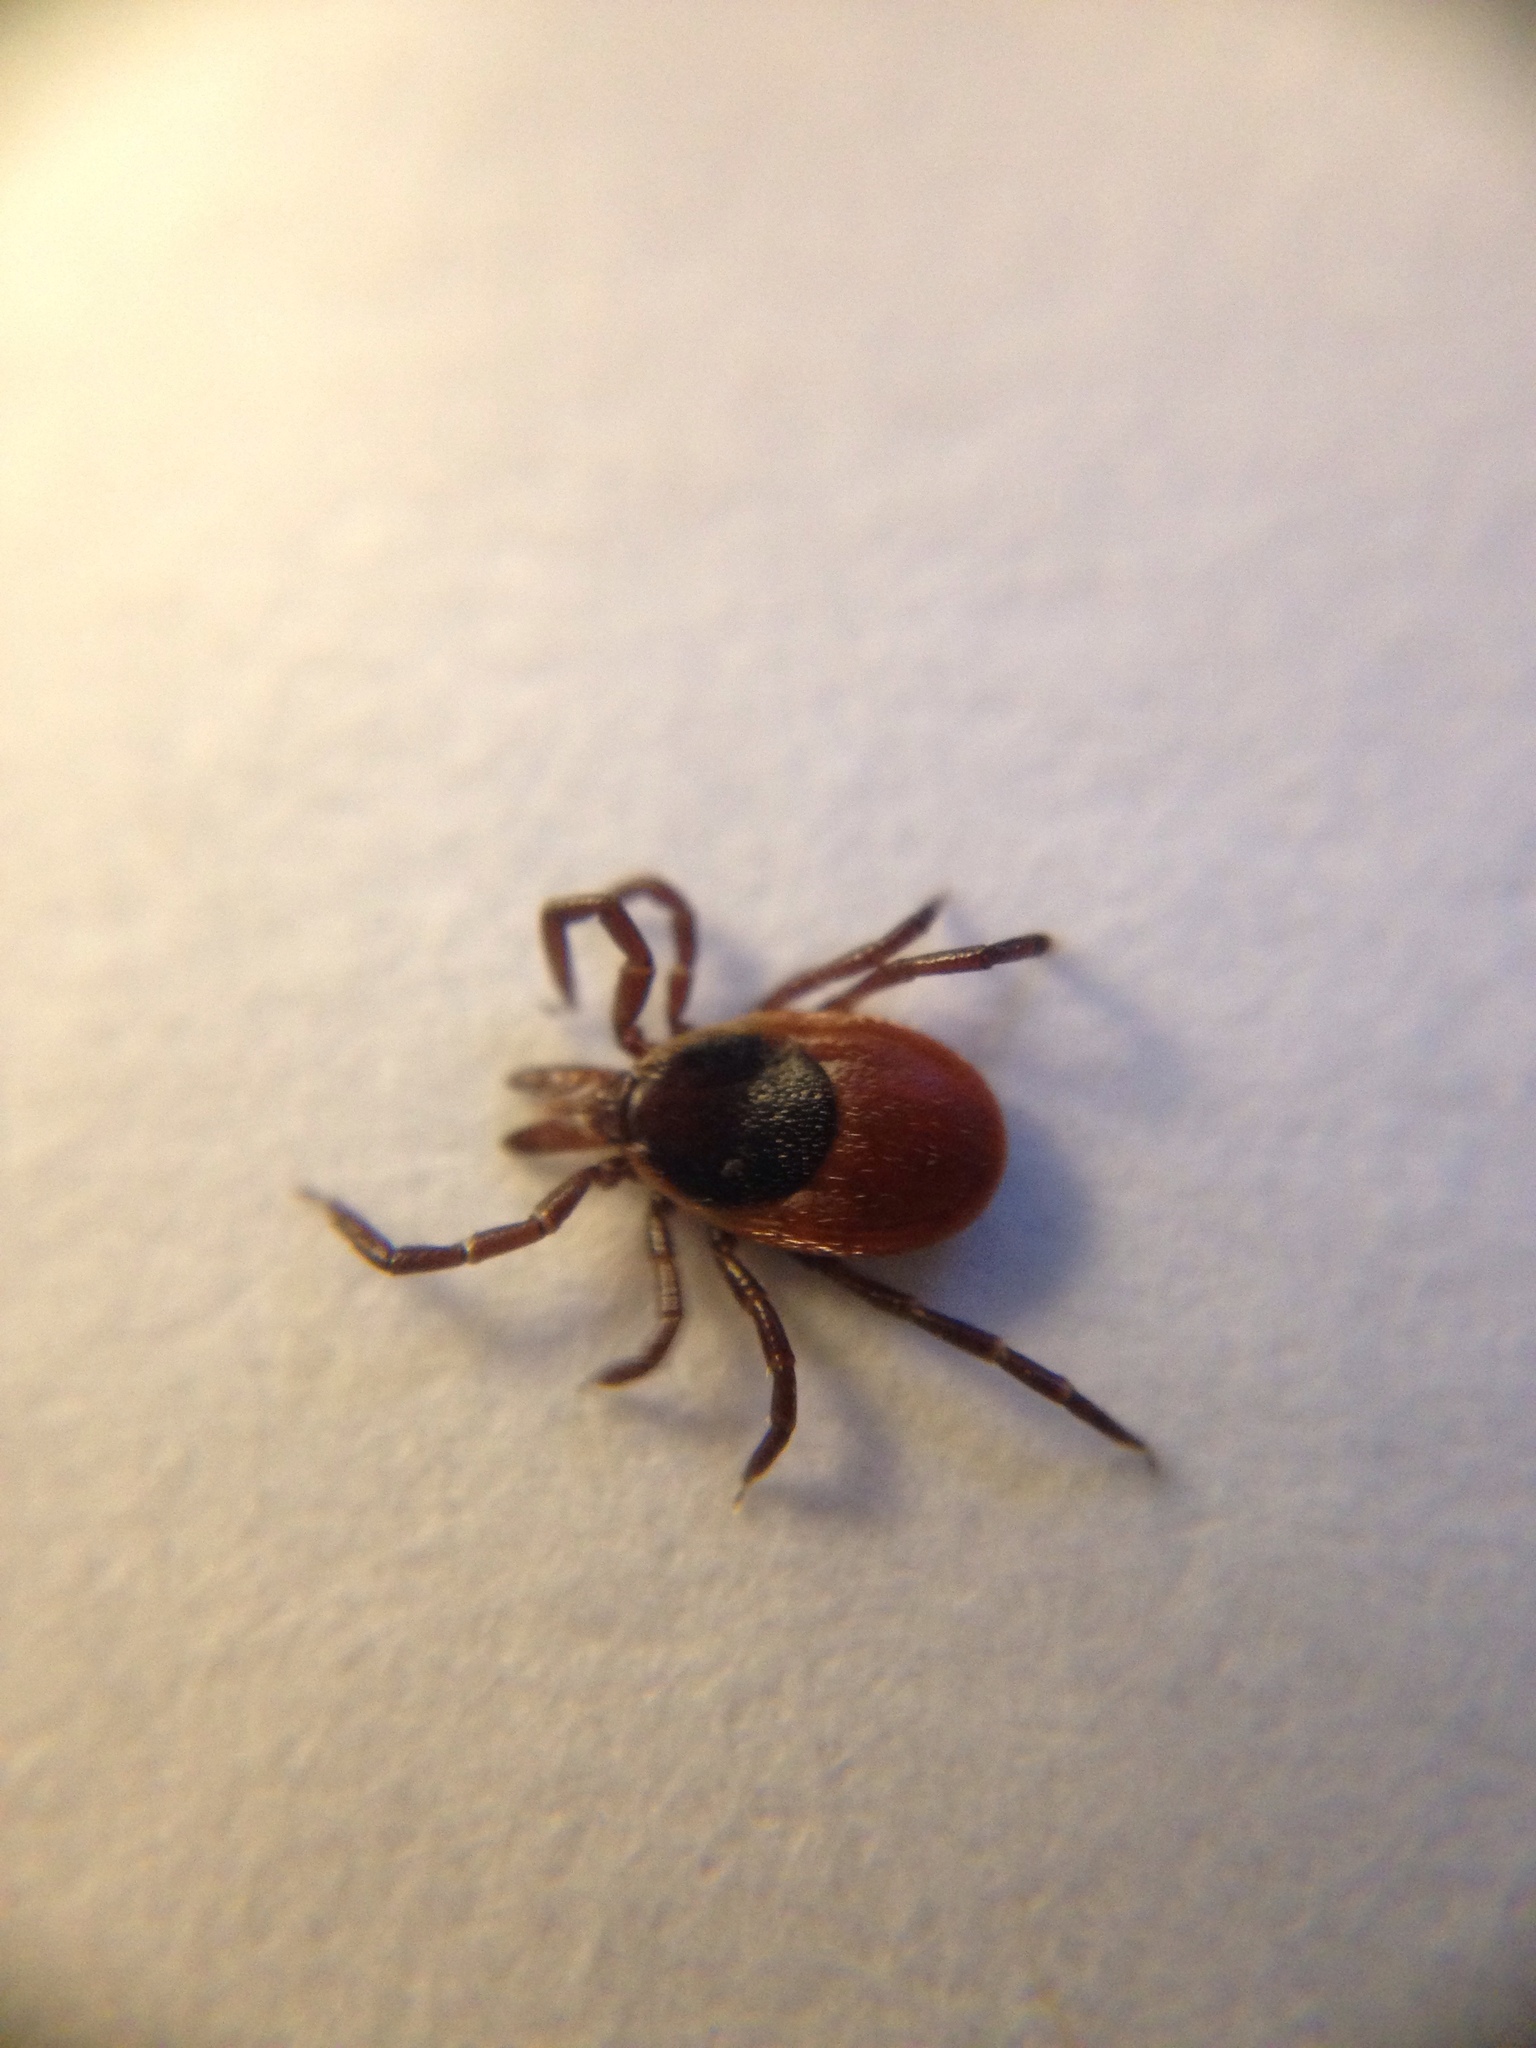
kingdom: Animalia
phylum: Arthropoda
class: Arachnida
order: Ixodida
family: Ixodidae
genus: Ixodes
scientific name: Ixodes scapularis
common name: Black legged tick
